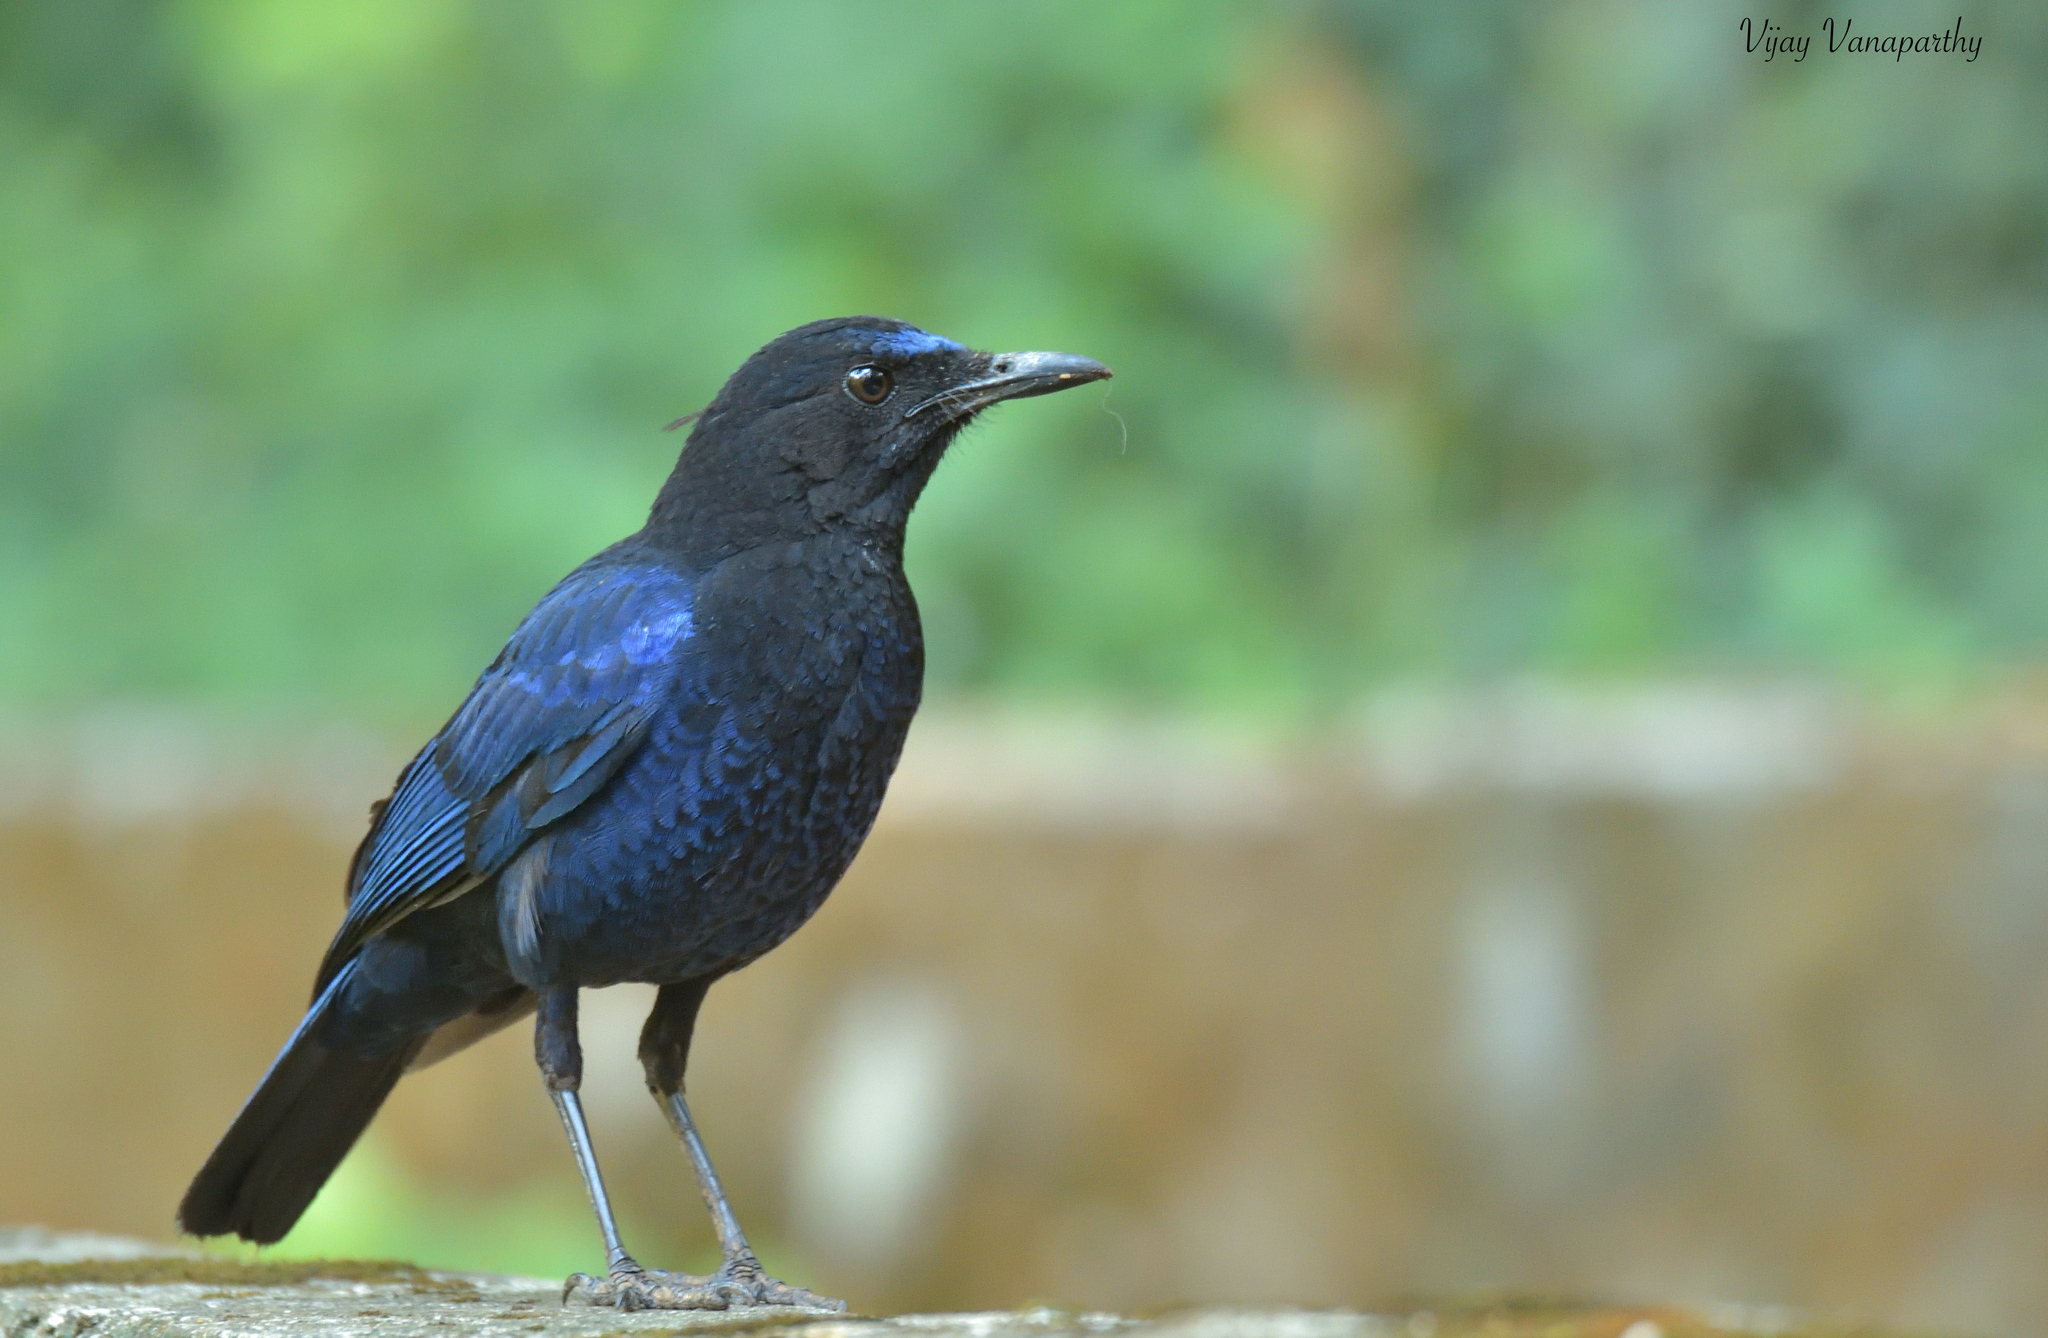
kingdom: Animalia
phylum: Chordata
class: Aves
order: Passeriformes
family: Muscicapidae
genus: Myophonus
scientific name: Myophonus horsfieldii
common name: Malabar whistling-thrush
